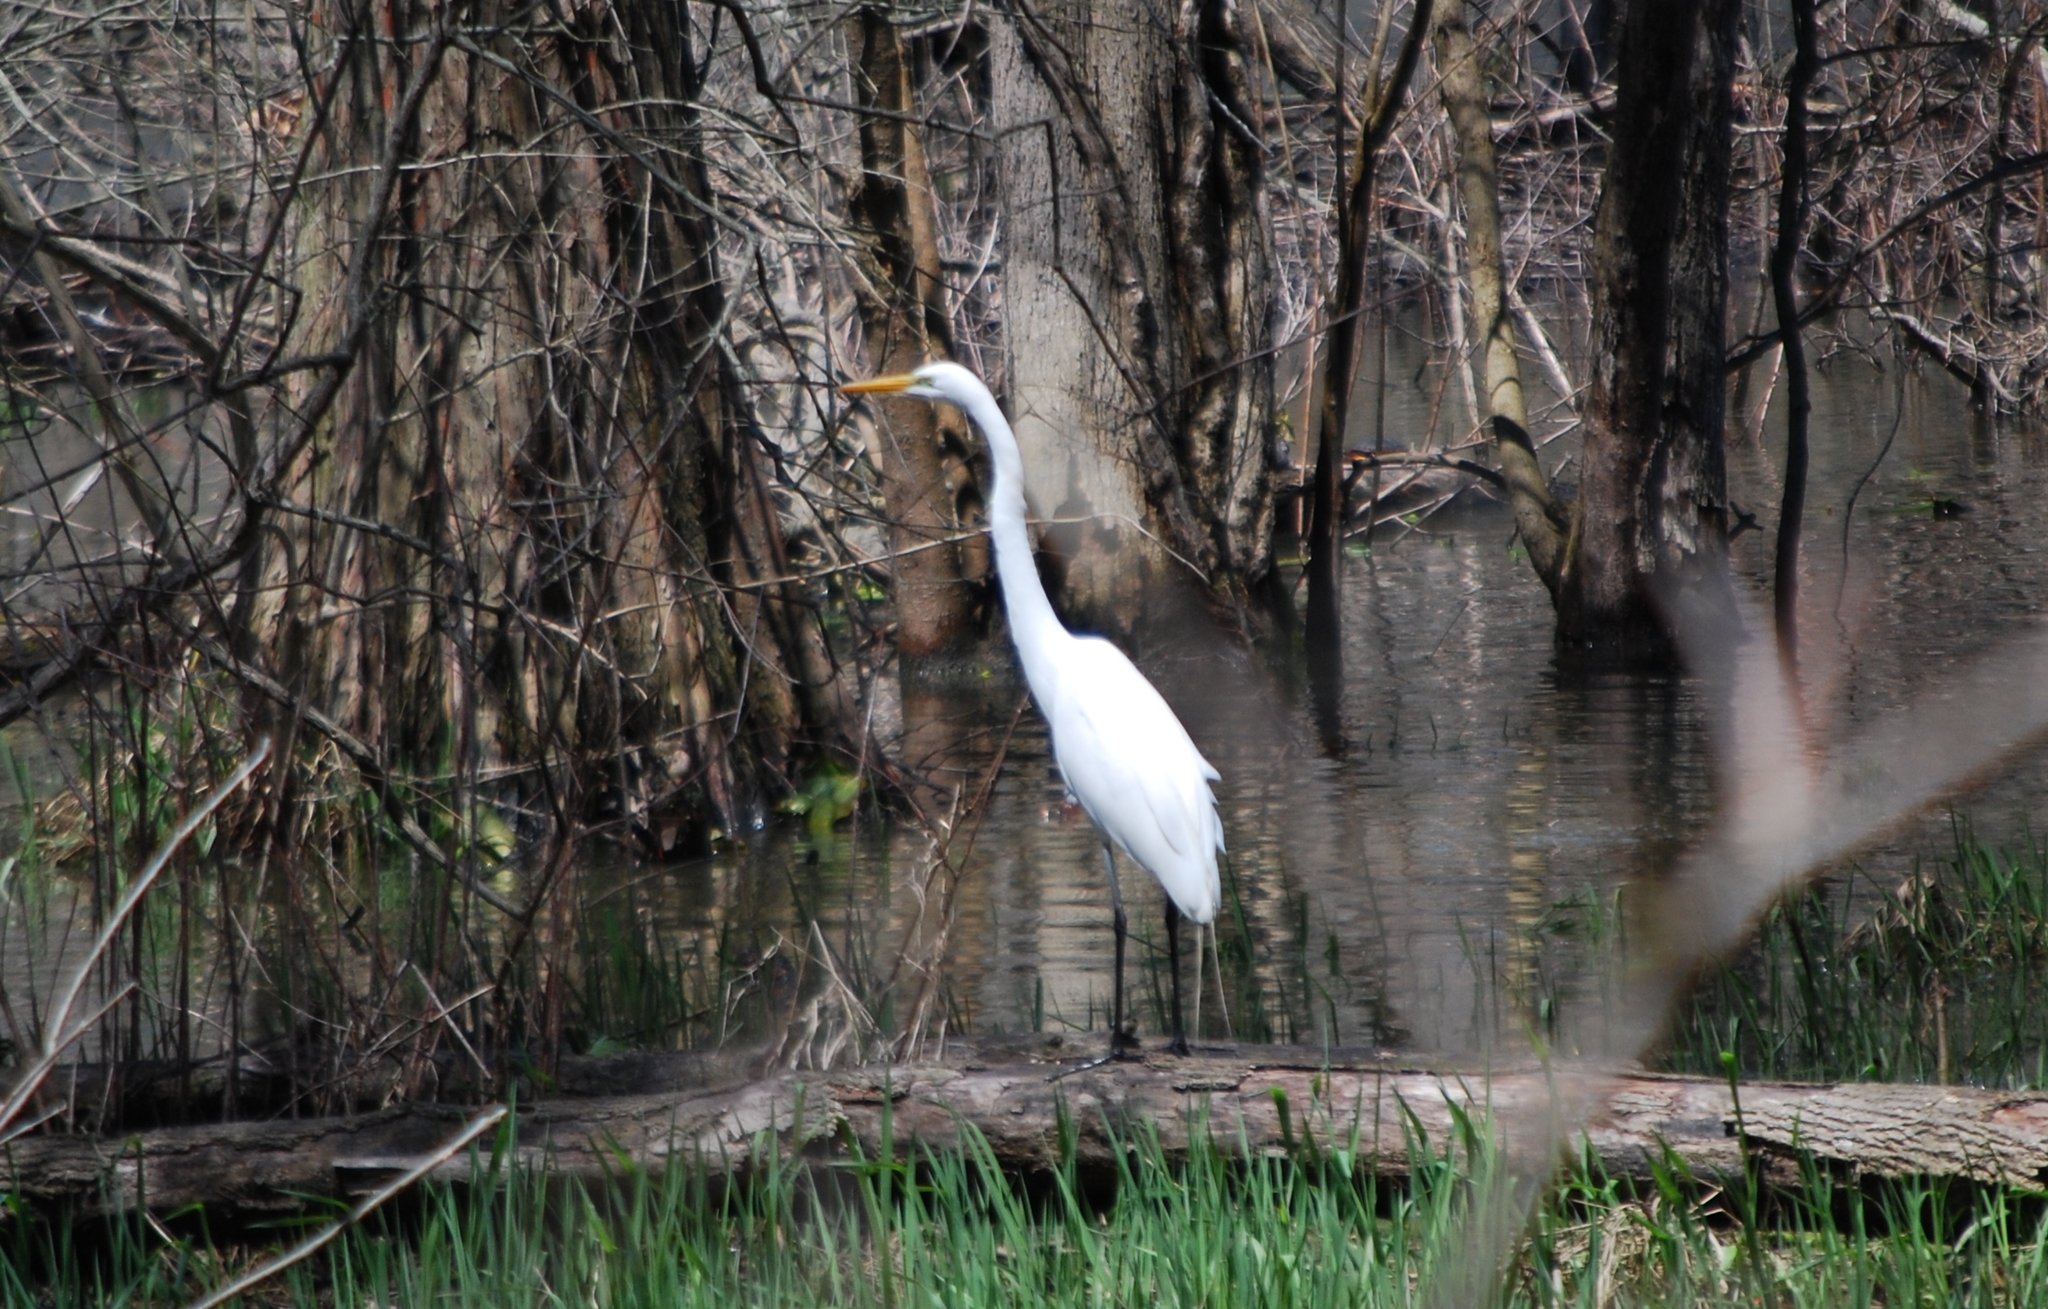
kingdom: Animalia
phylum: Chordata
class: Aves
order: Pelecaniformes
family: Ardeidae
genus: Ardea
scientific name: Ardea alba
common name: Great egret
